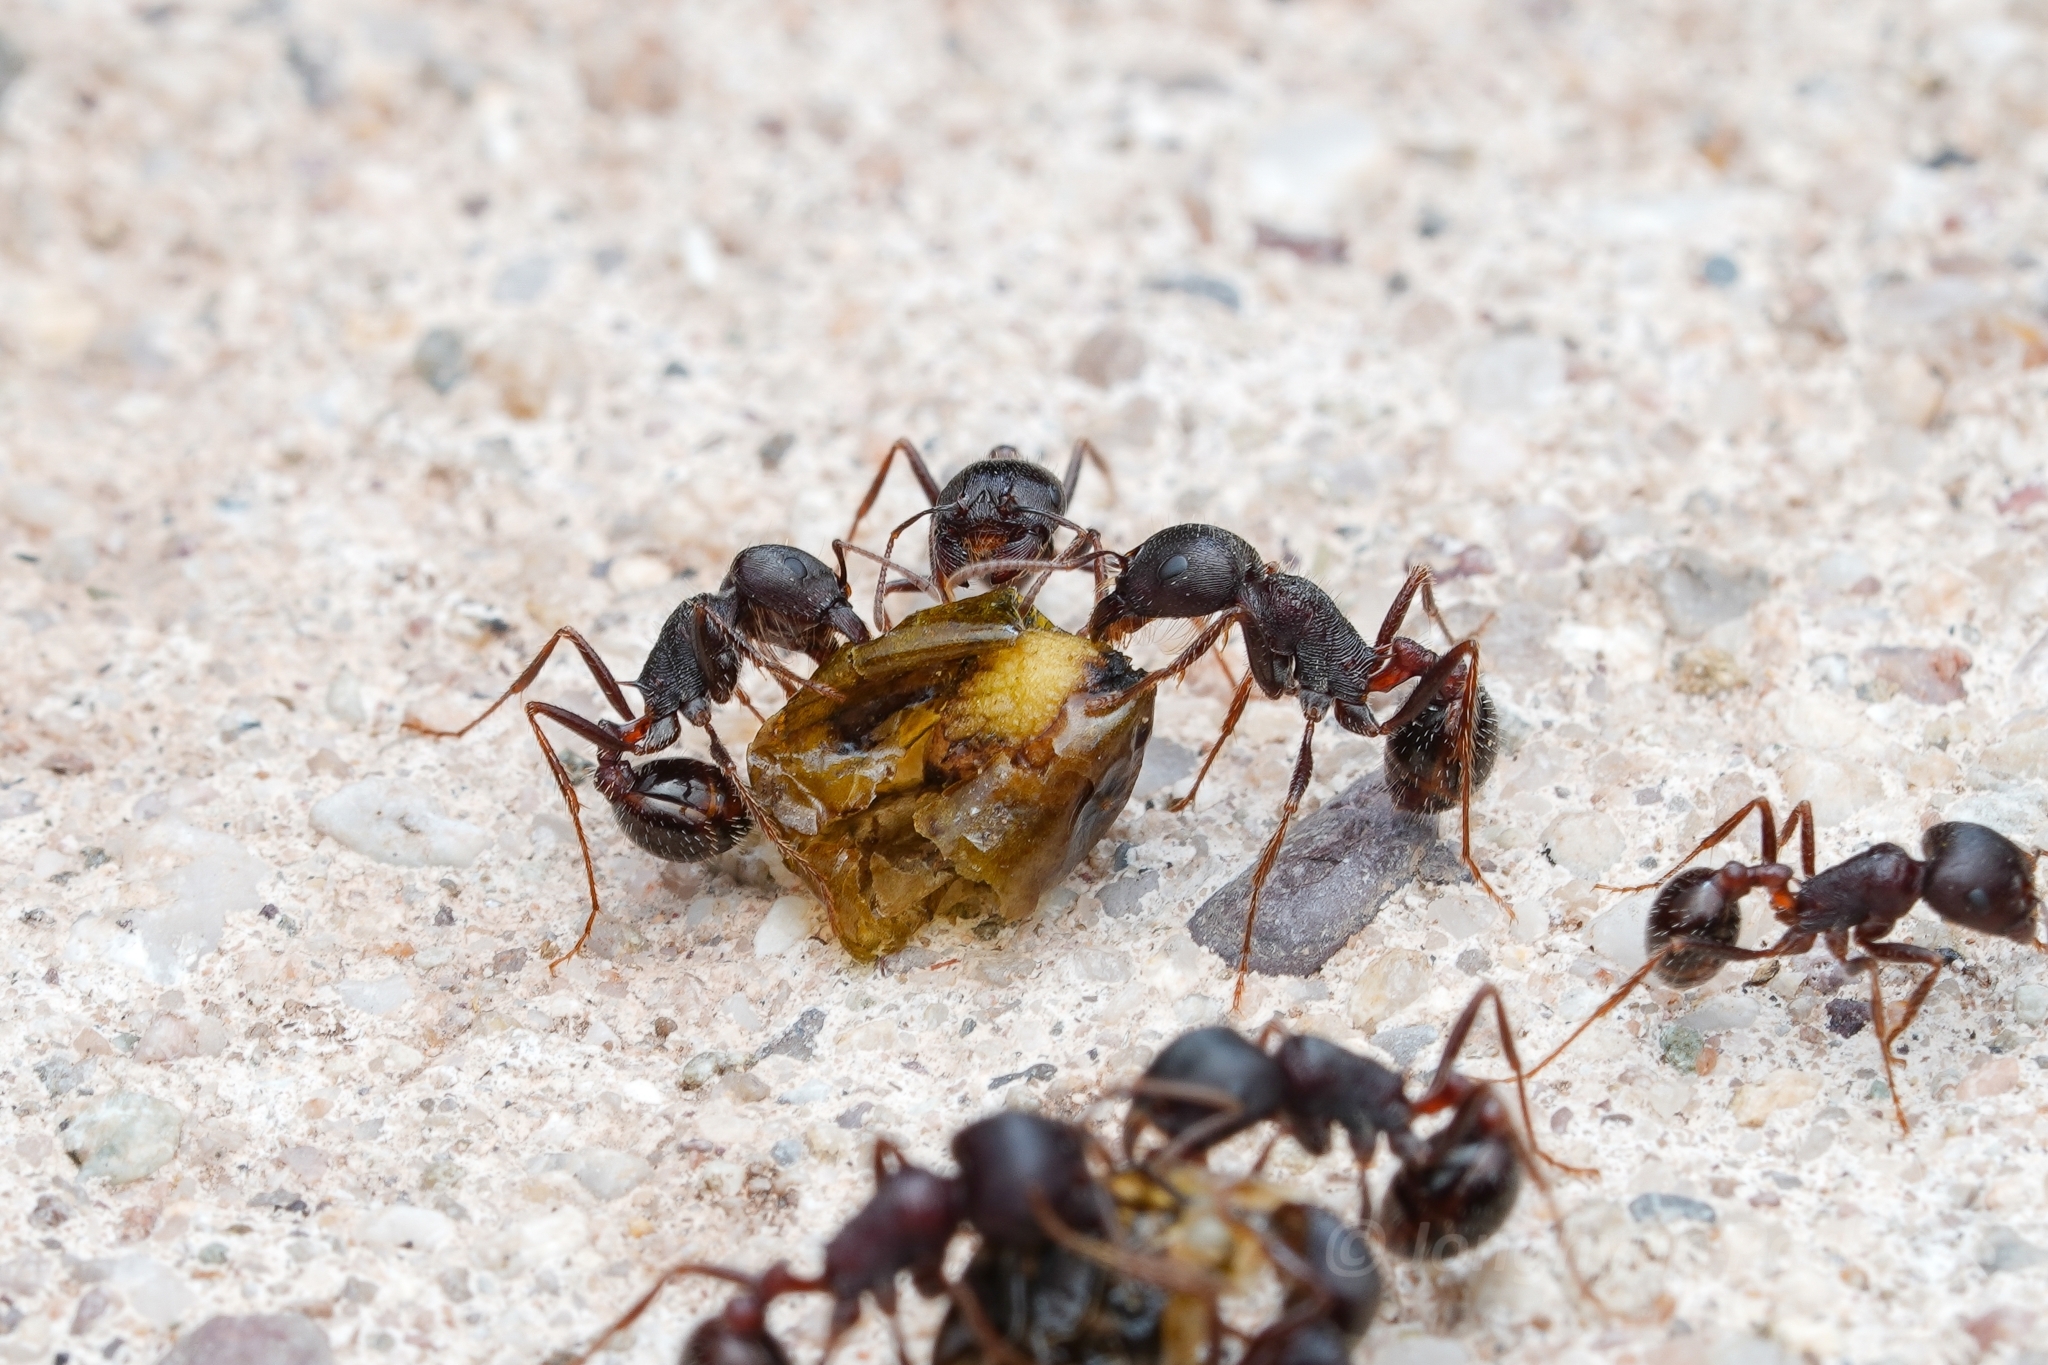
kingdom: Animalia
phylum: Arthropoda
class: Insecta
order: Hymenoptera
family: Formicidae
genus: Pogonomyrmex
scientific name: Pogonomyrmex rugosus
